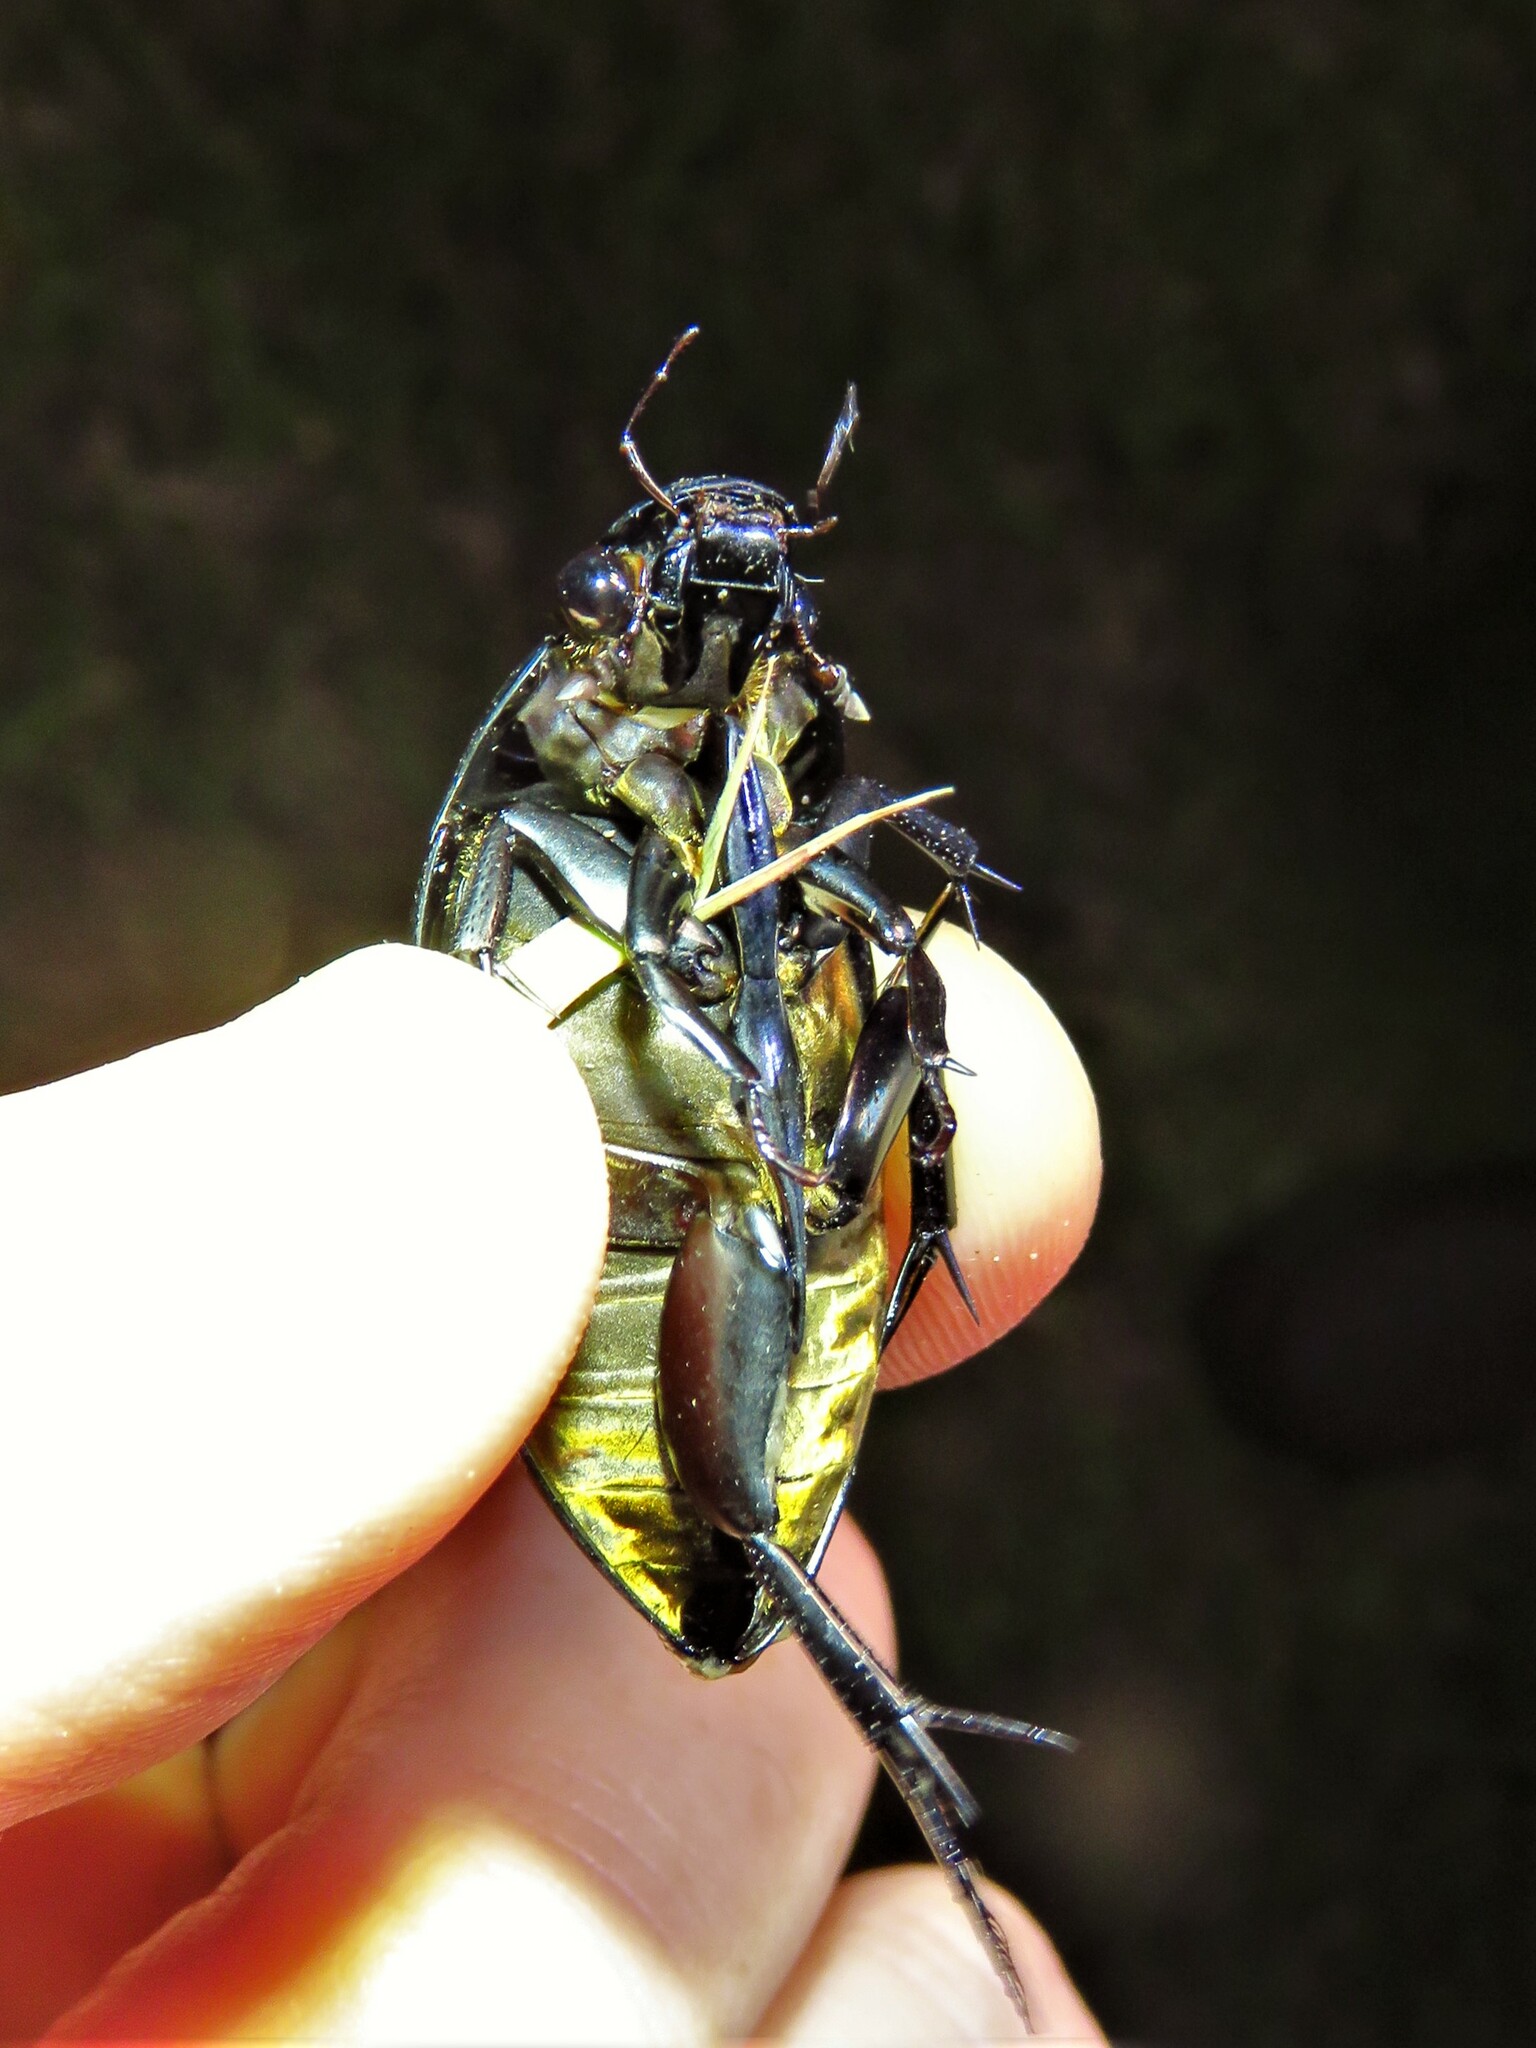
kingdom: Animalia
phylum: Arthropoda
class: Insecta
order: Coleoptera
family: Hydrophilidae
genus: Hydrophilus
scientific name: Hydrophilus ovatus
